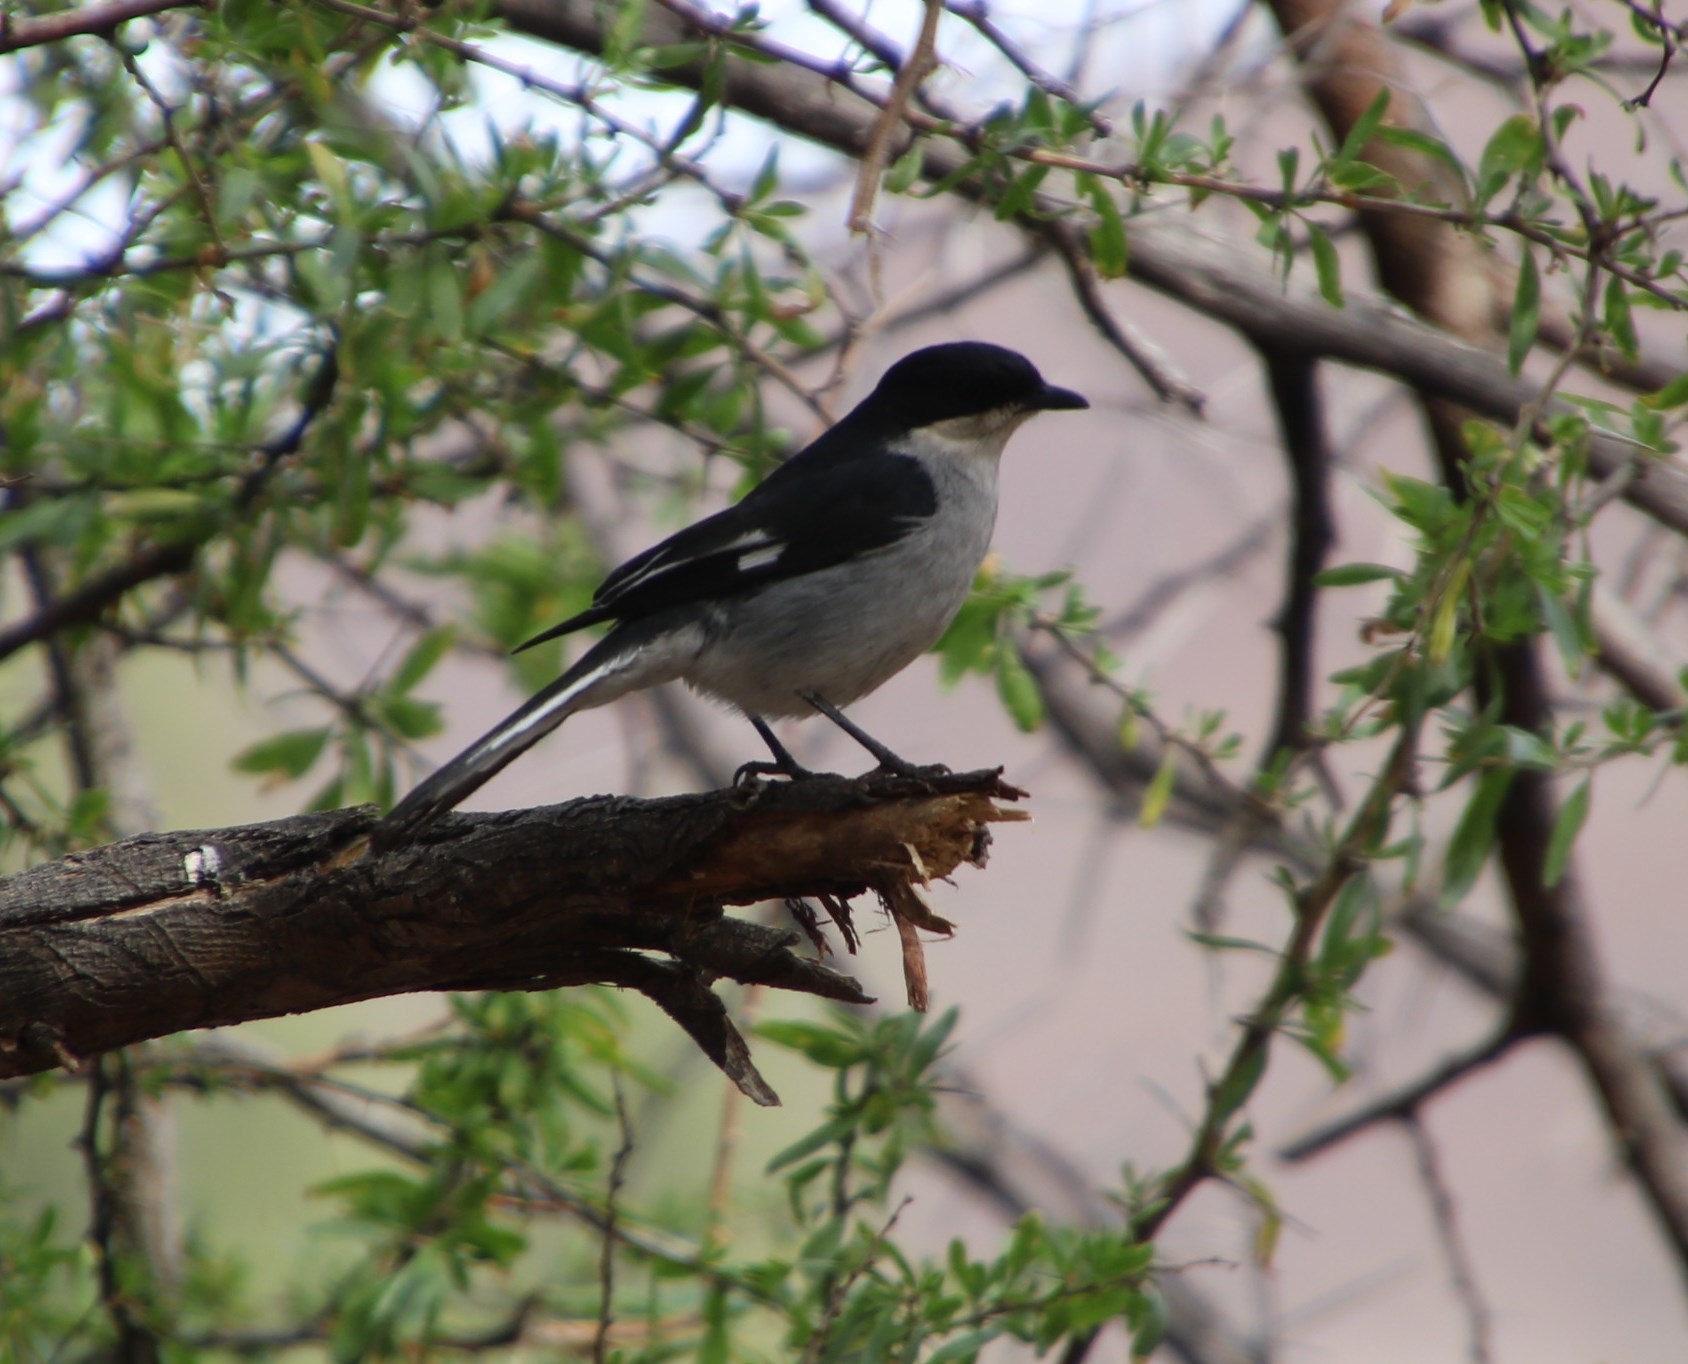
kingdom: Animalia
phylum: Chordata
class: Aves
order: Passeriformes
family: Muscicapidae
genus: Sigelus
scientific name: Sigelus silens
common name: Fiscal flycatcher
